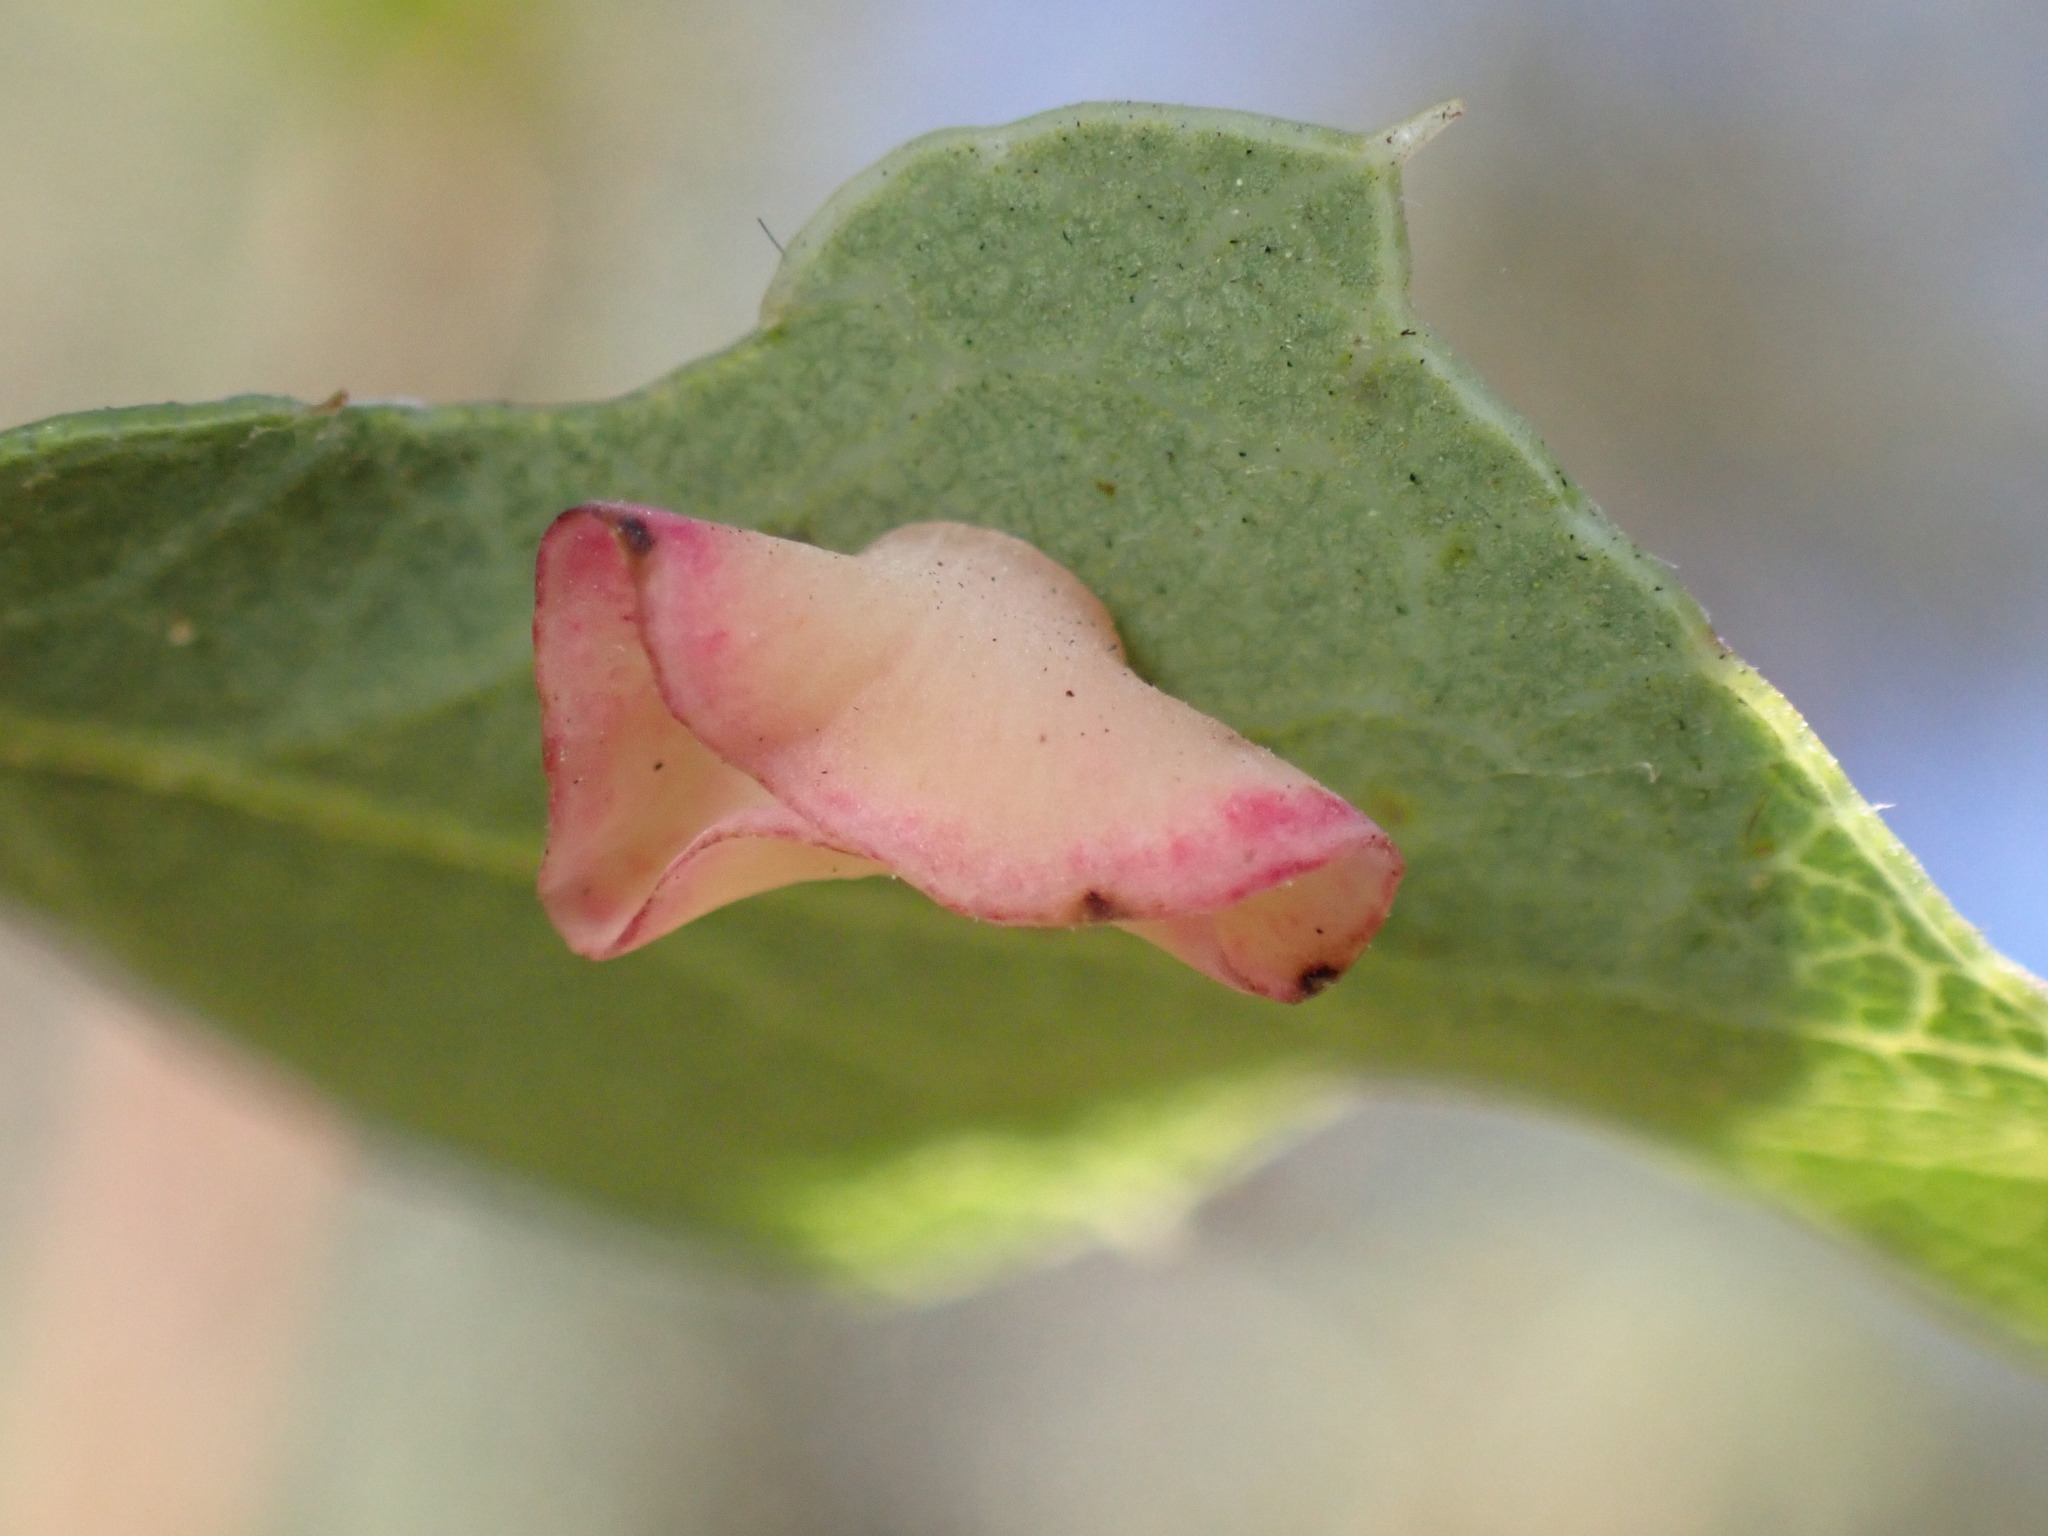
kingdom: Animalia
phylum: Arthropoda
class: Insecta
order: Hymenoptera
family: Cynipidae
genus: Andricus
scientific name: Andricus
